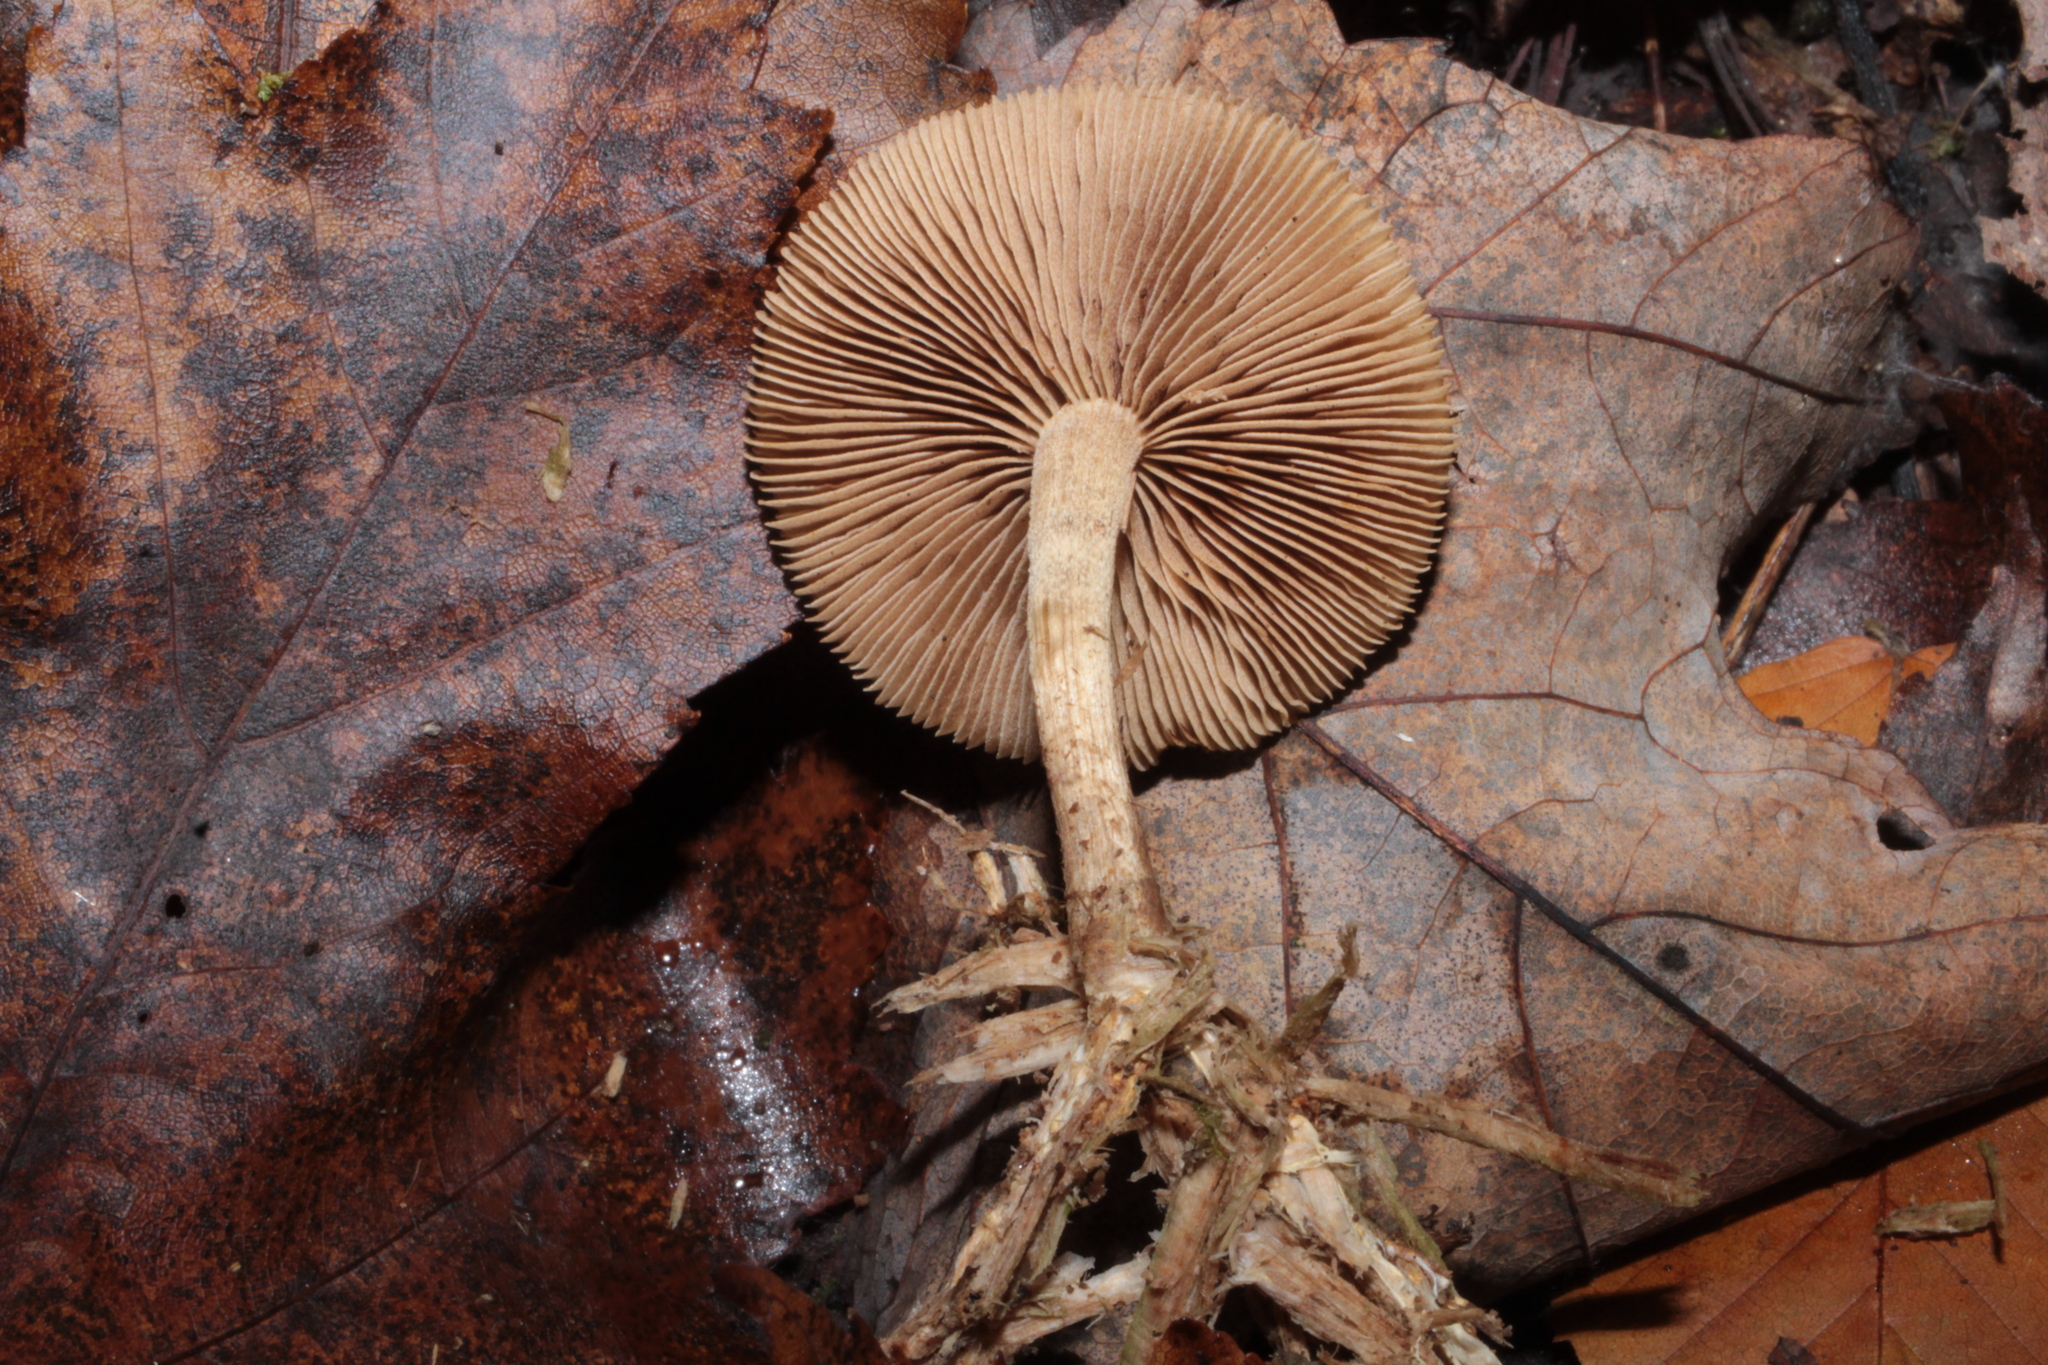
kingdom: Fungi
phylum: Basidiomycota
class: Agaricomycetes
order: Agaricales
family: Hymenogastraceae
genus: Galerina
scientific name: Galerina marginata
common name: Funeral bell
